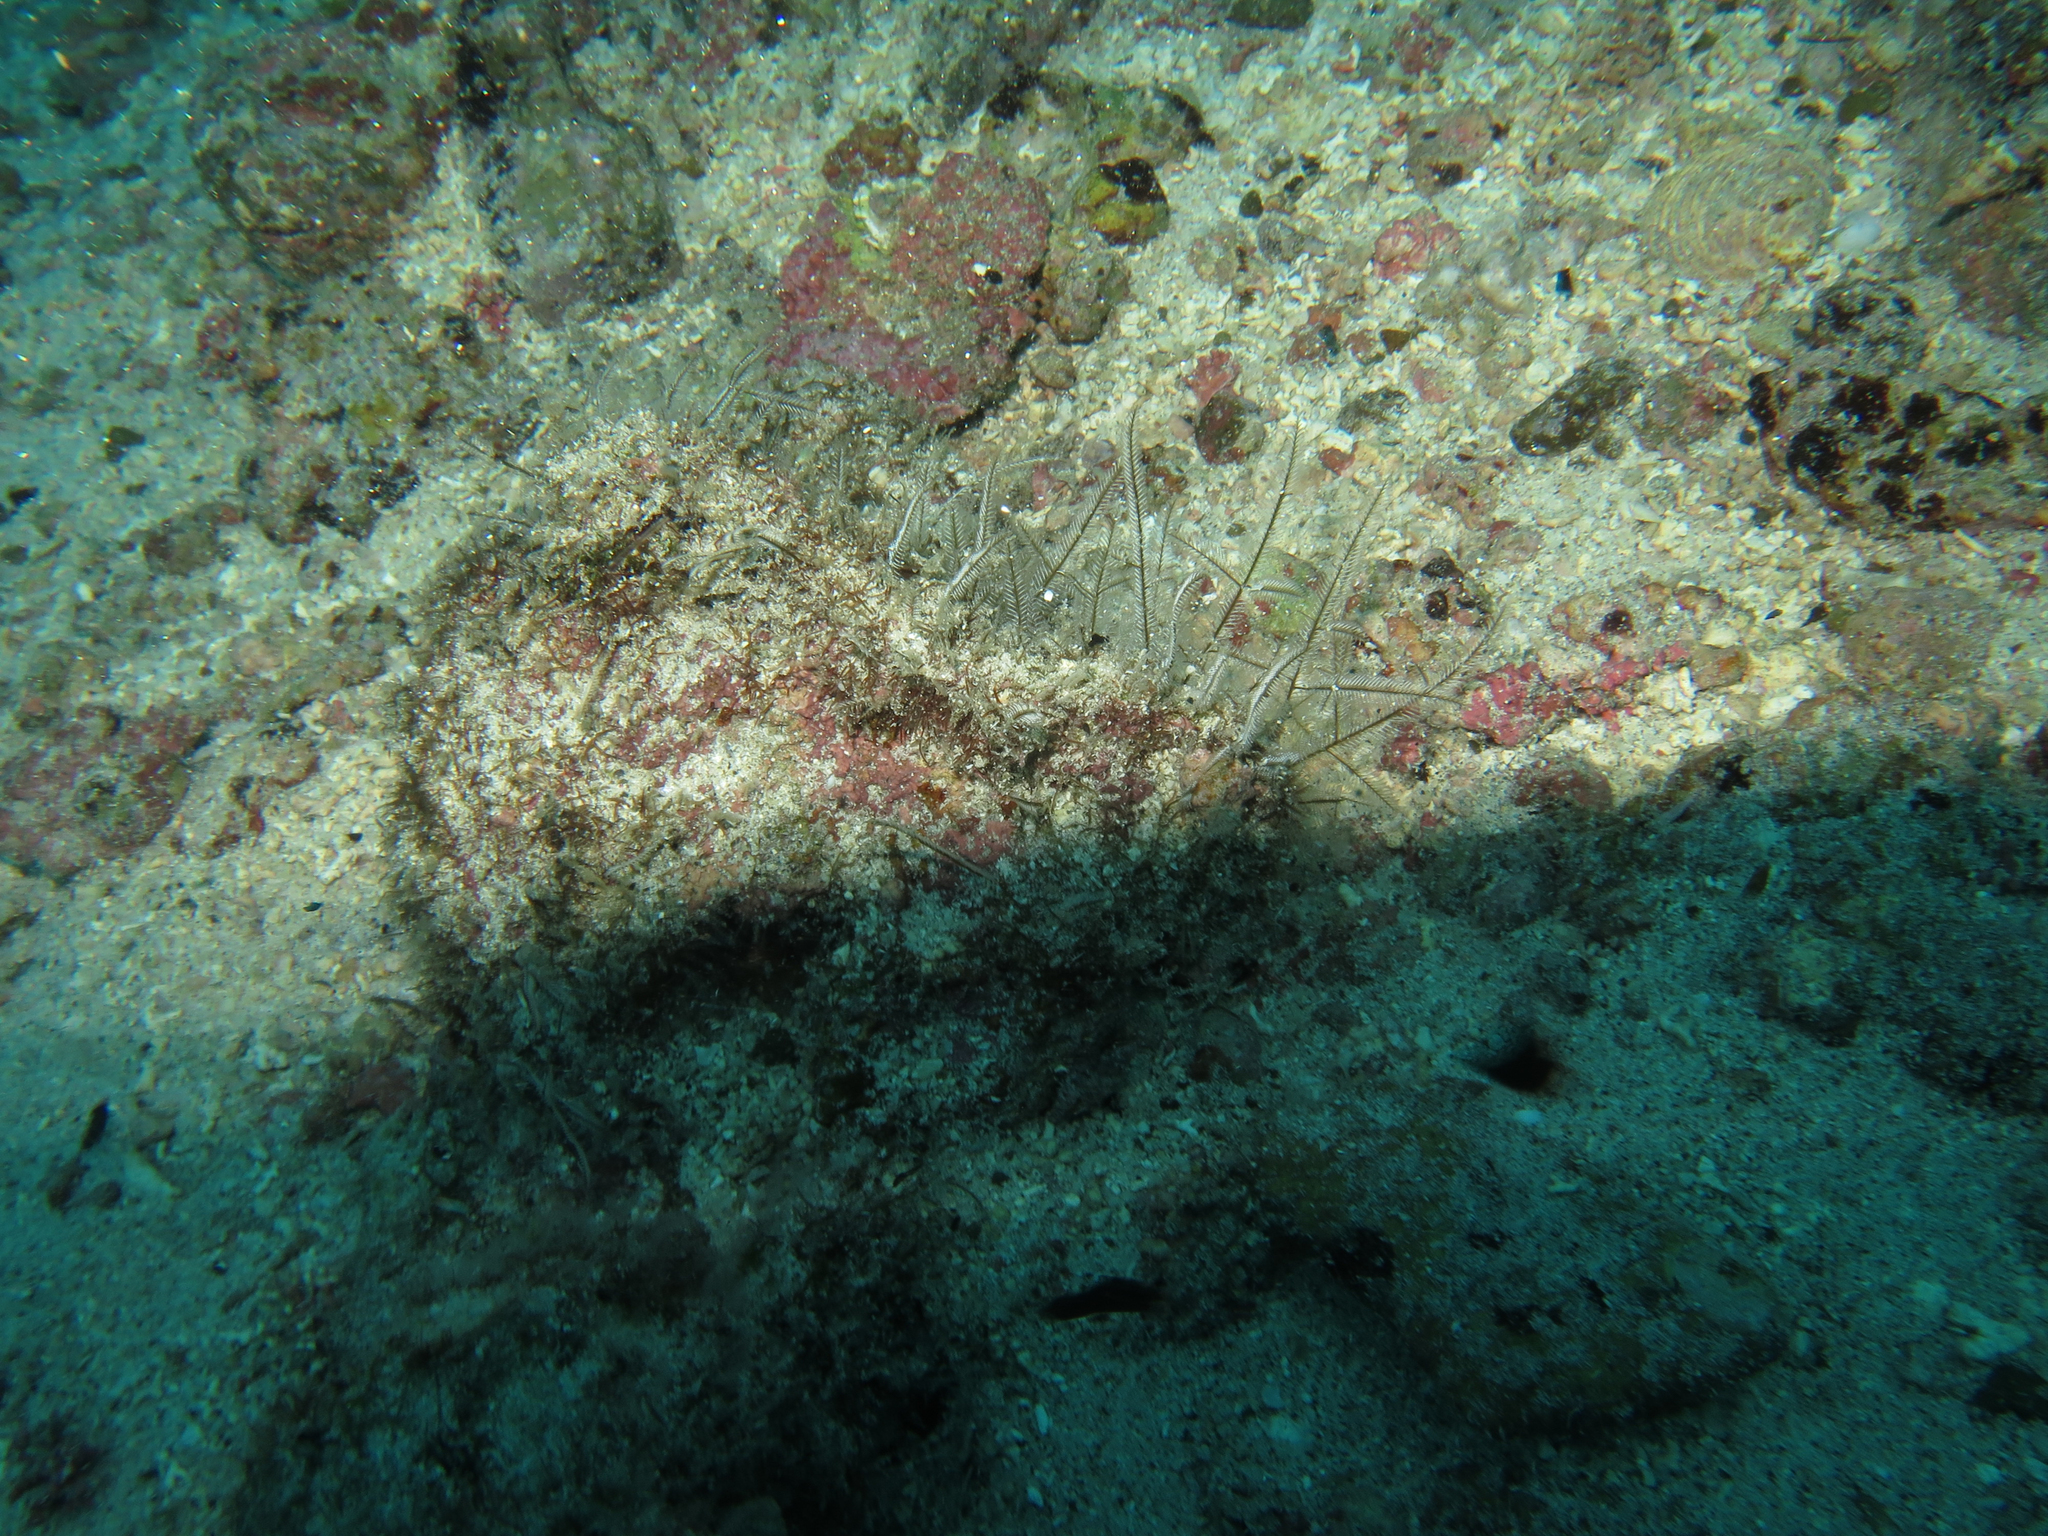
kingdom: Animalia
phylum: Cnidaria
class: Hydrozoa
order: Leptothecata
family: Aglaopheniidae
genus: Macrorhynchia
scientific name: Macrorhynchia philippina
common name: Stinging hydroid
